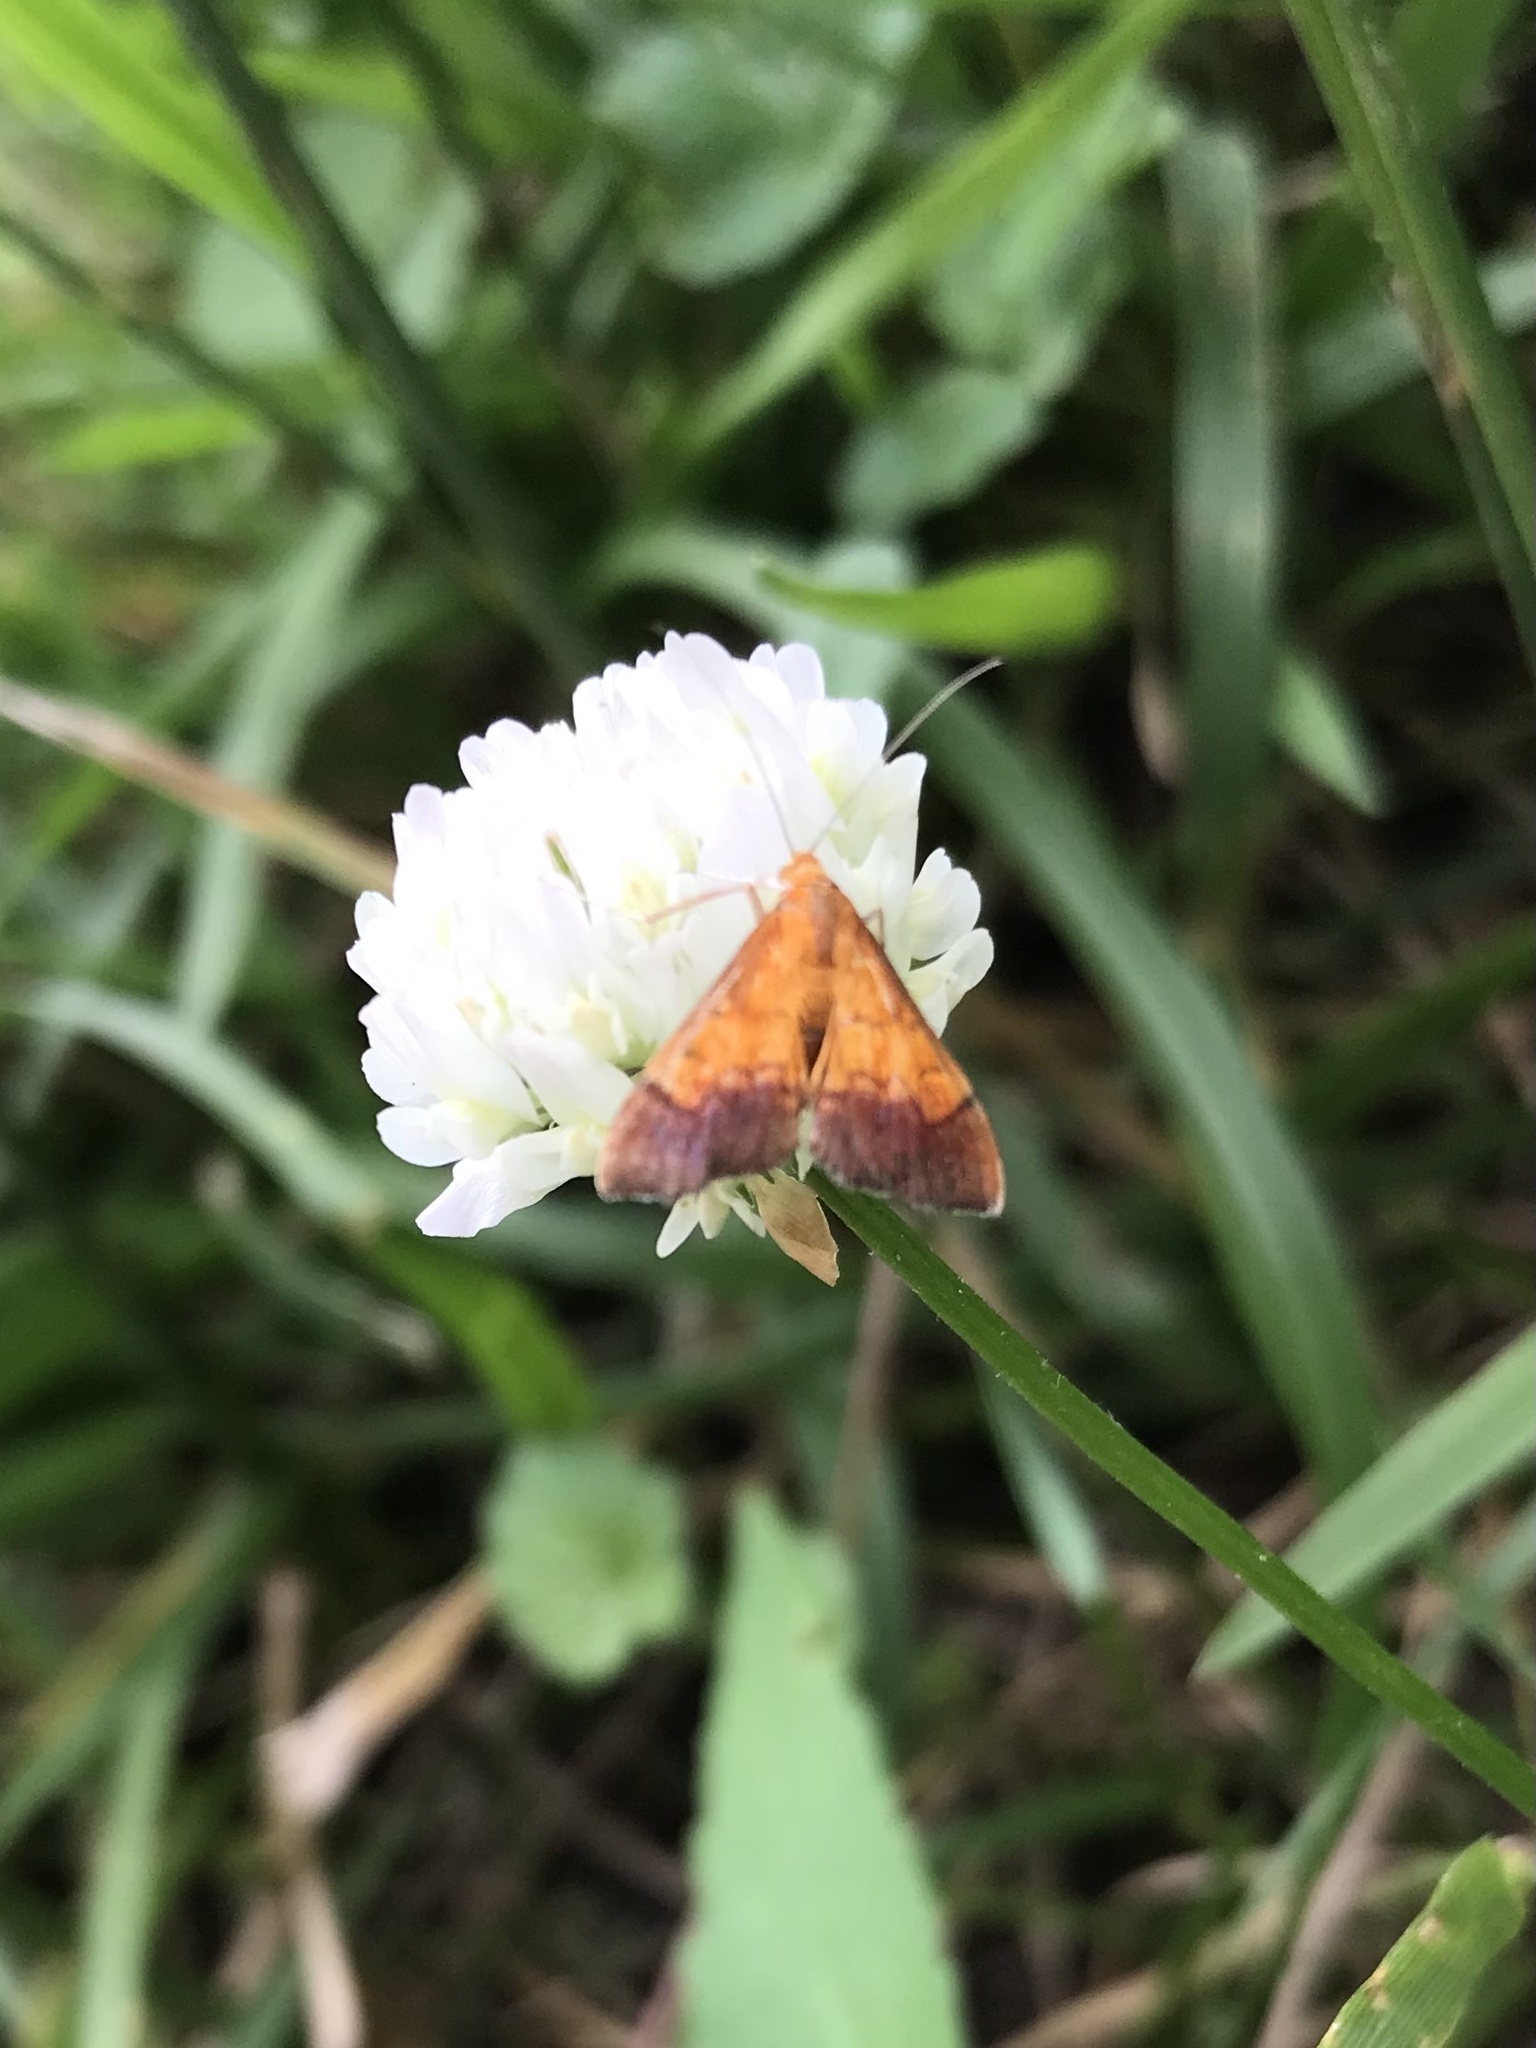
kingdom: Animalia
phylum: Arthropoda
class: Insecta
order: Lepidoptera
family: Crambidae
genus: Pyrausta
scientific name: Pyrausta bicoloralis
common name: Bicolored pyrausta moth
